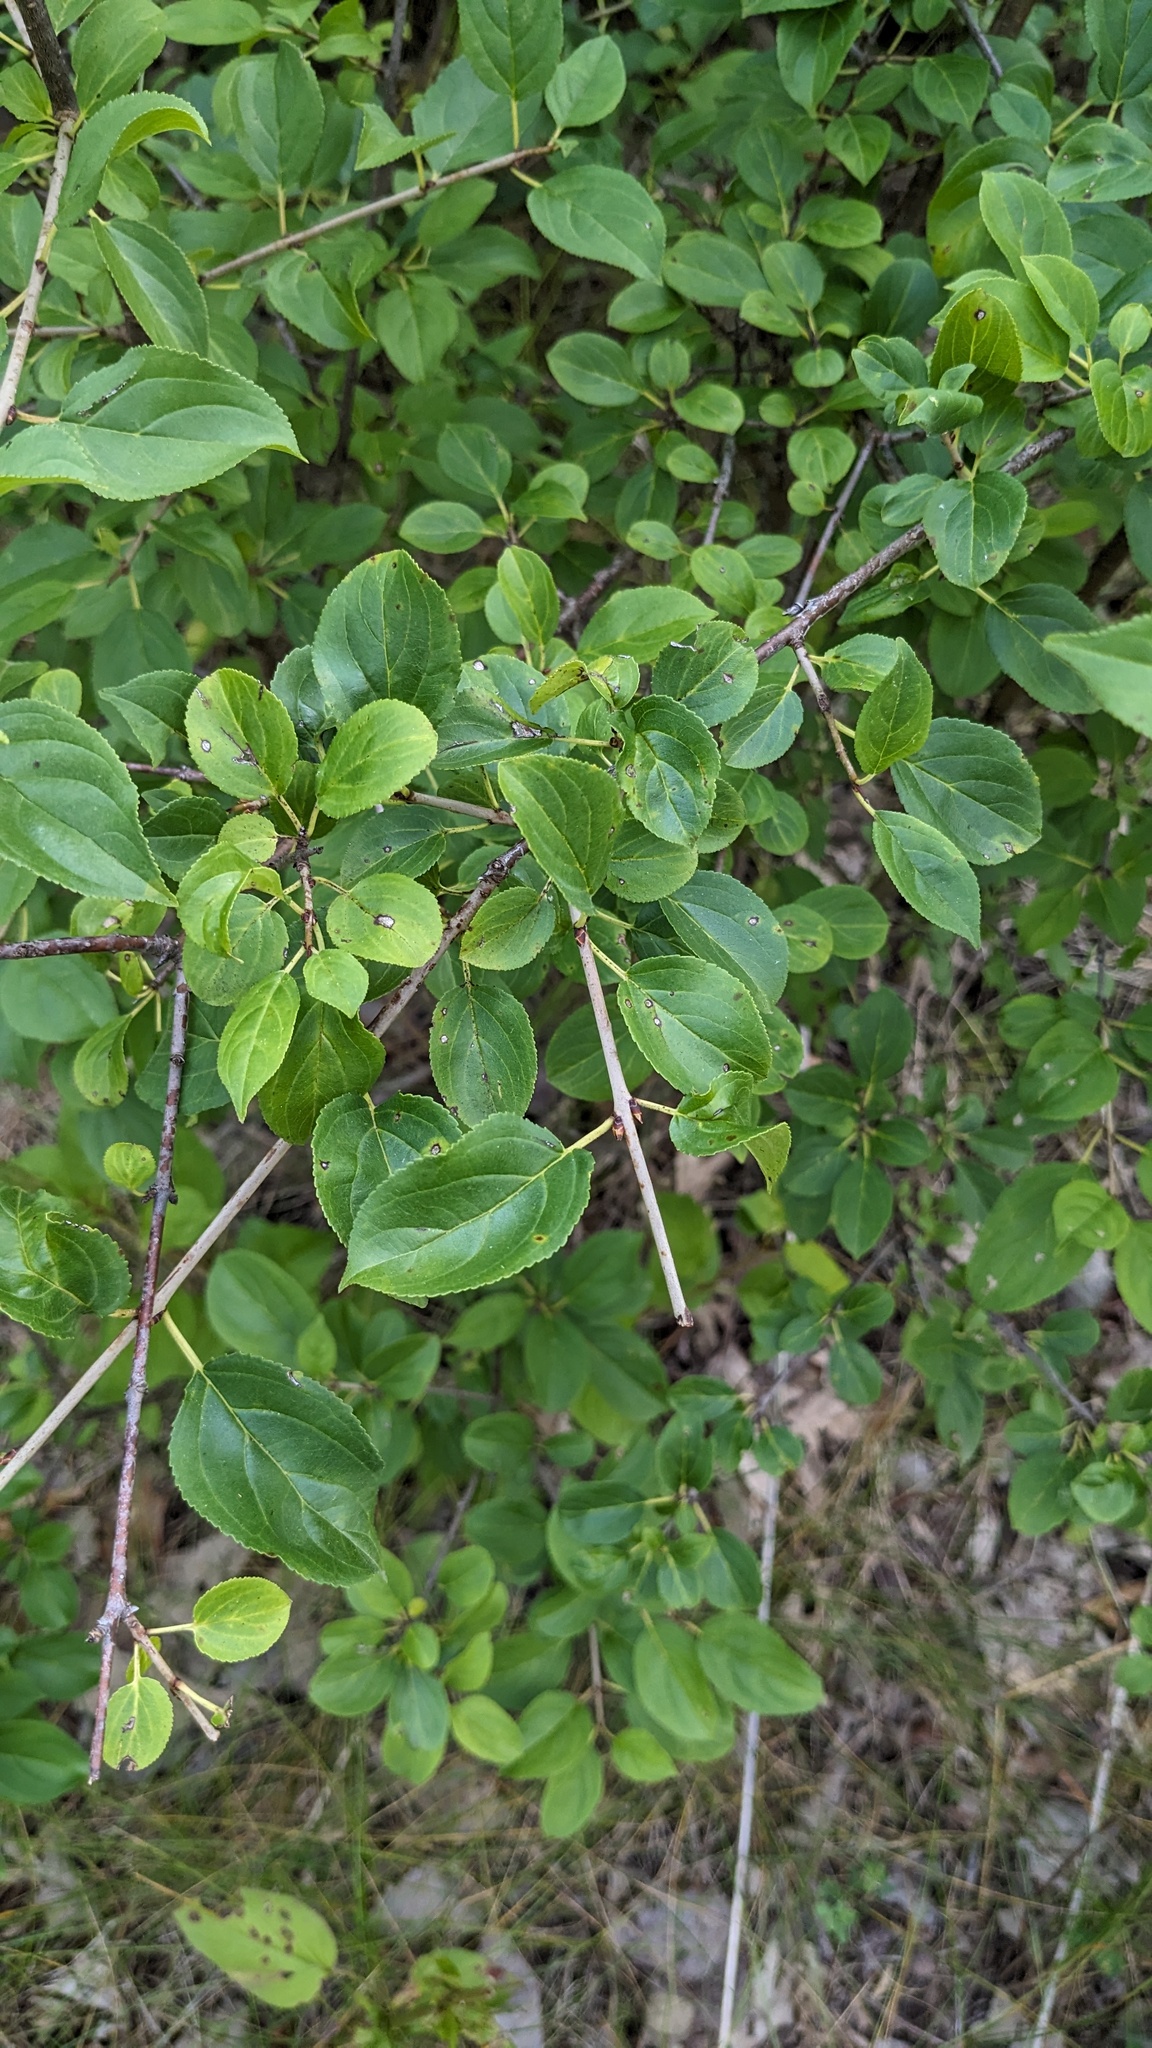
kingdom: Plantae
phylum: Tracheophyta
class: Magnoliopsida
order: Rosales
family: Rhamnaceae
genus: Rhamnus
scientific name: Rhamnus cathartica
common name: Common buckthorn
